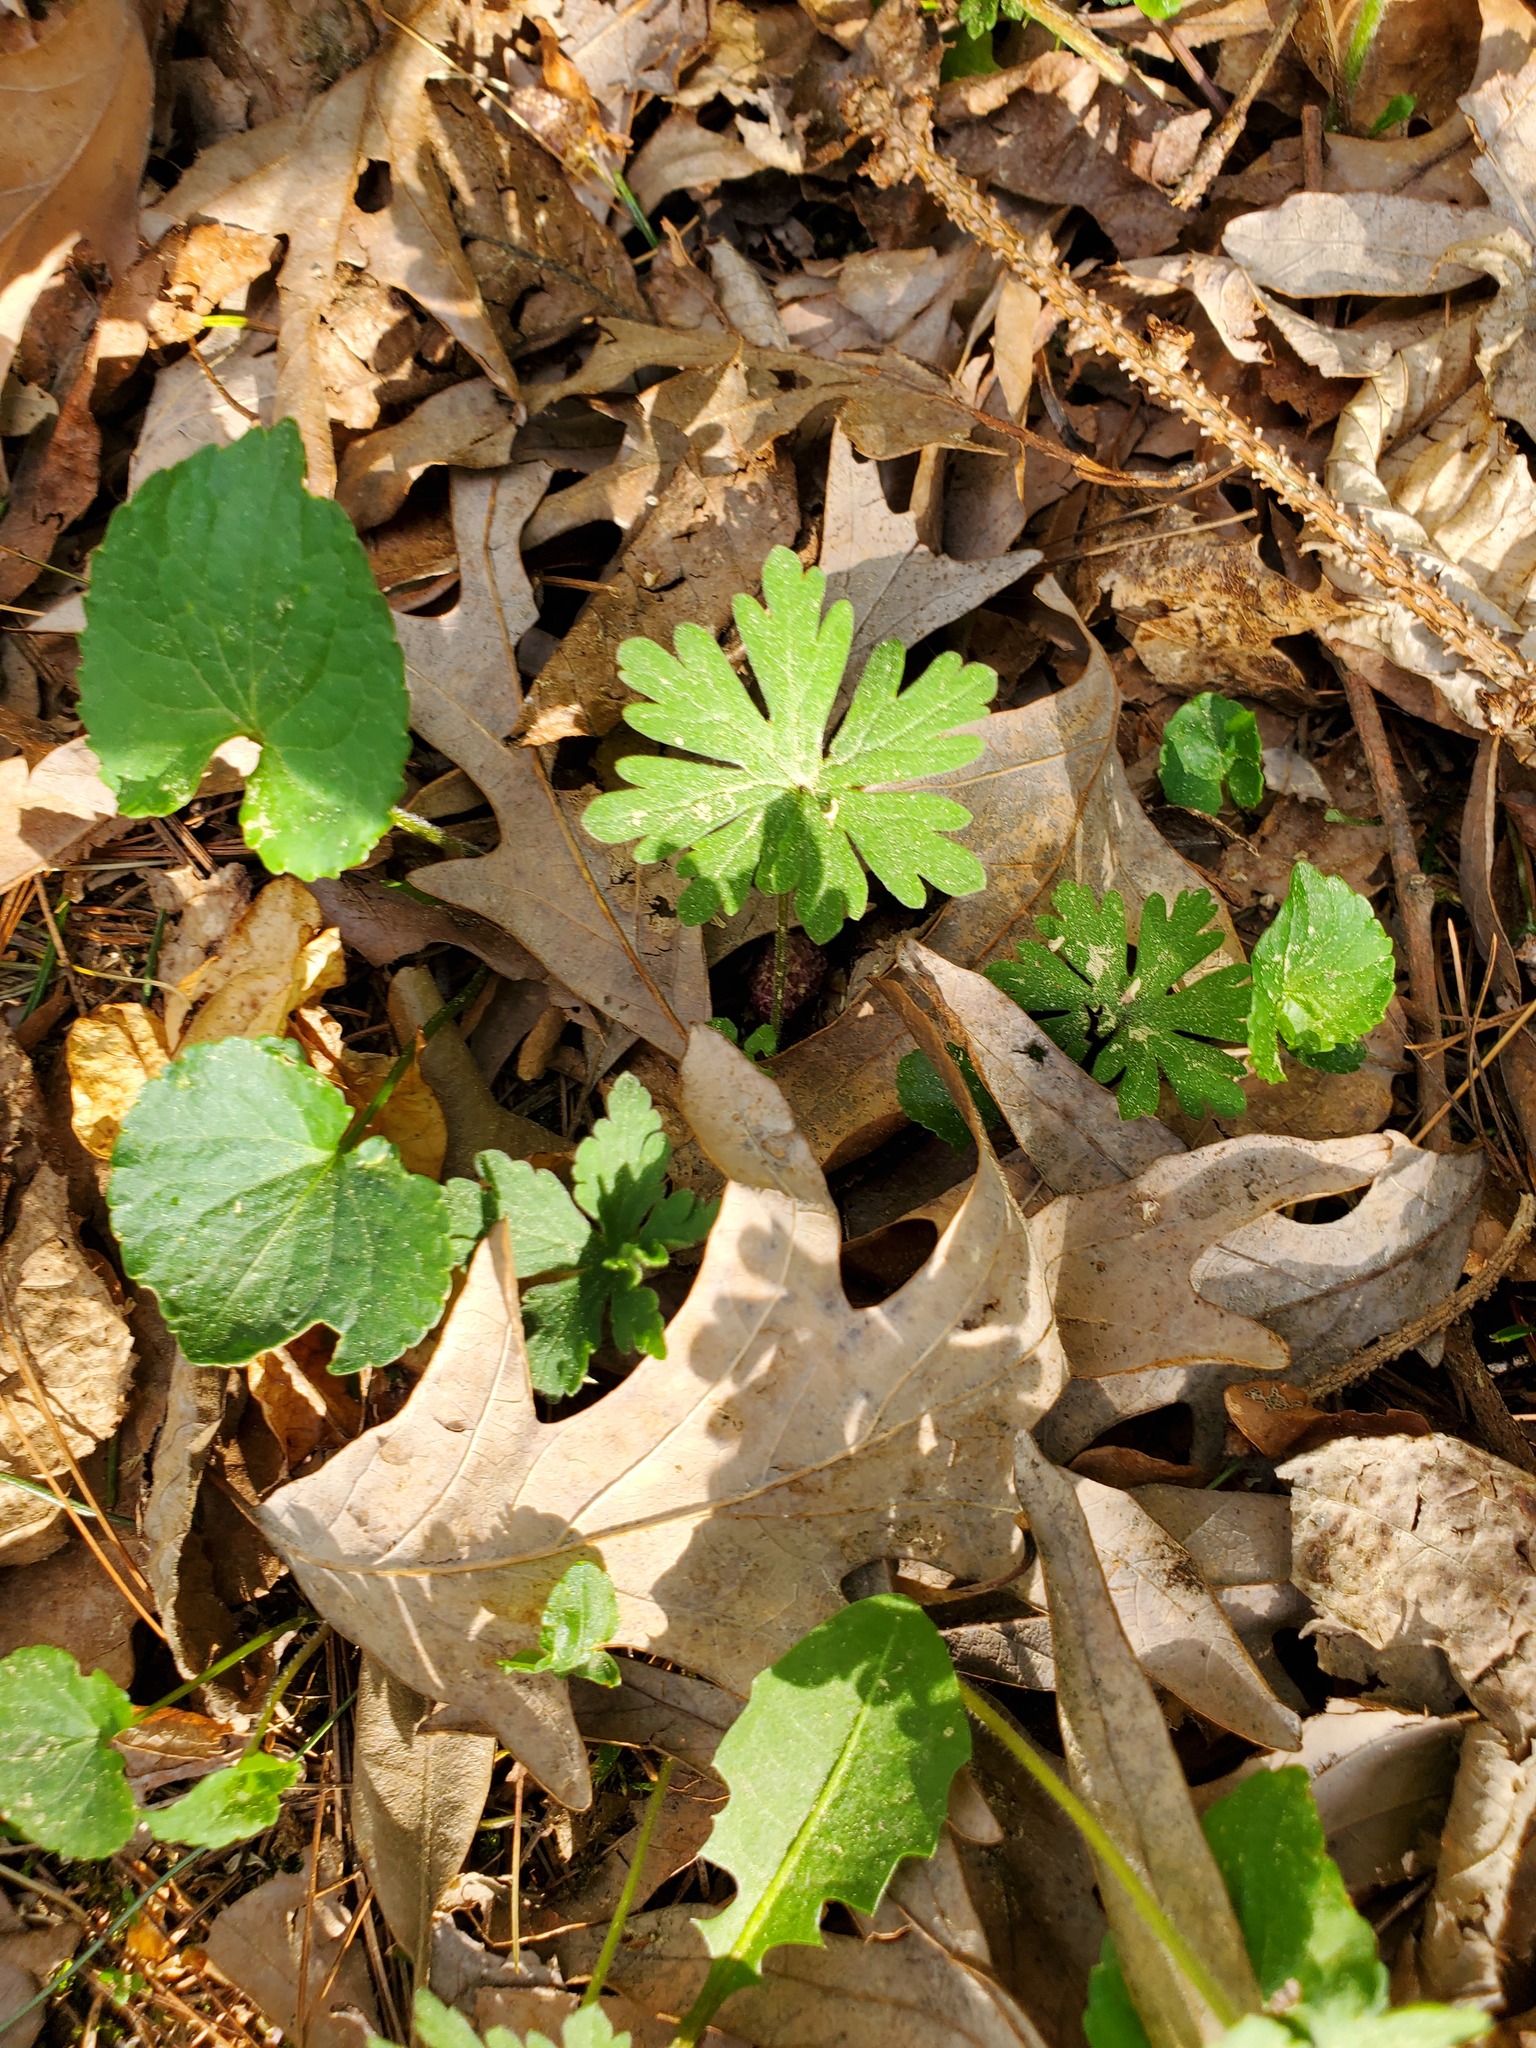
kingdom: Plantae
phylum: Tracheophyta
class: Magnoliopsida
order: Geraniales
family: Geraniaceae
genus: Geranium
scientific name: Geranium maculatum
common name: Spotted geranium
